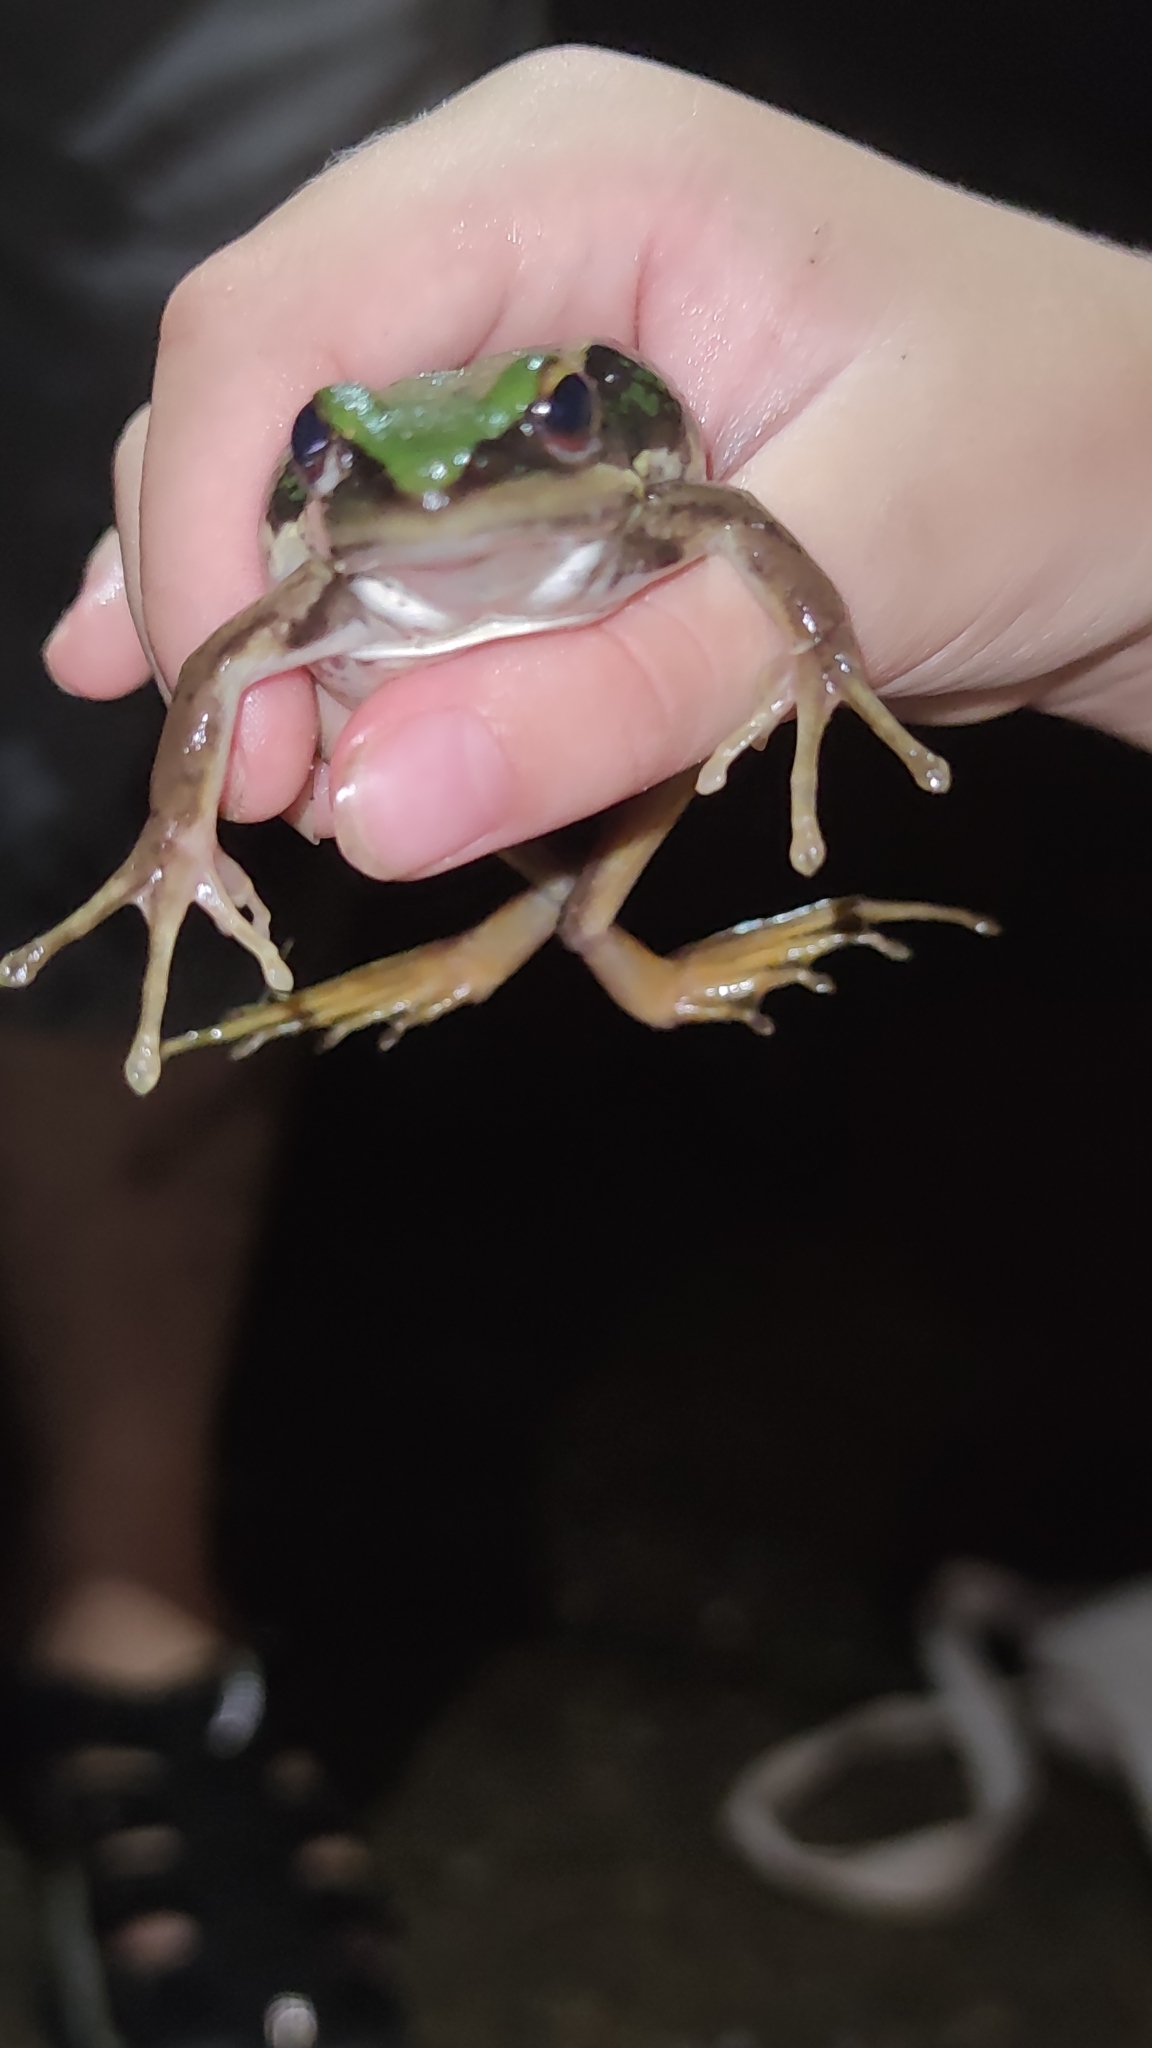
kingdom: Animalia
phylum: Chordata
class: Amphibia
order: Anura
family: Ranidae
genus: Hylarana
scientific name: Hylarana erythraea
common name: Common green frog/green paddy frog/leaf frog
